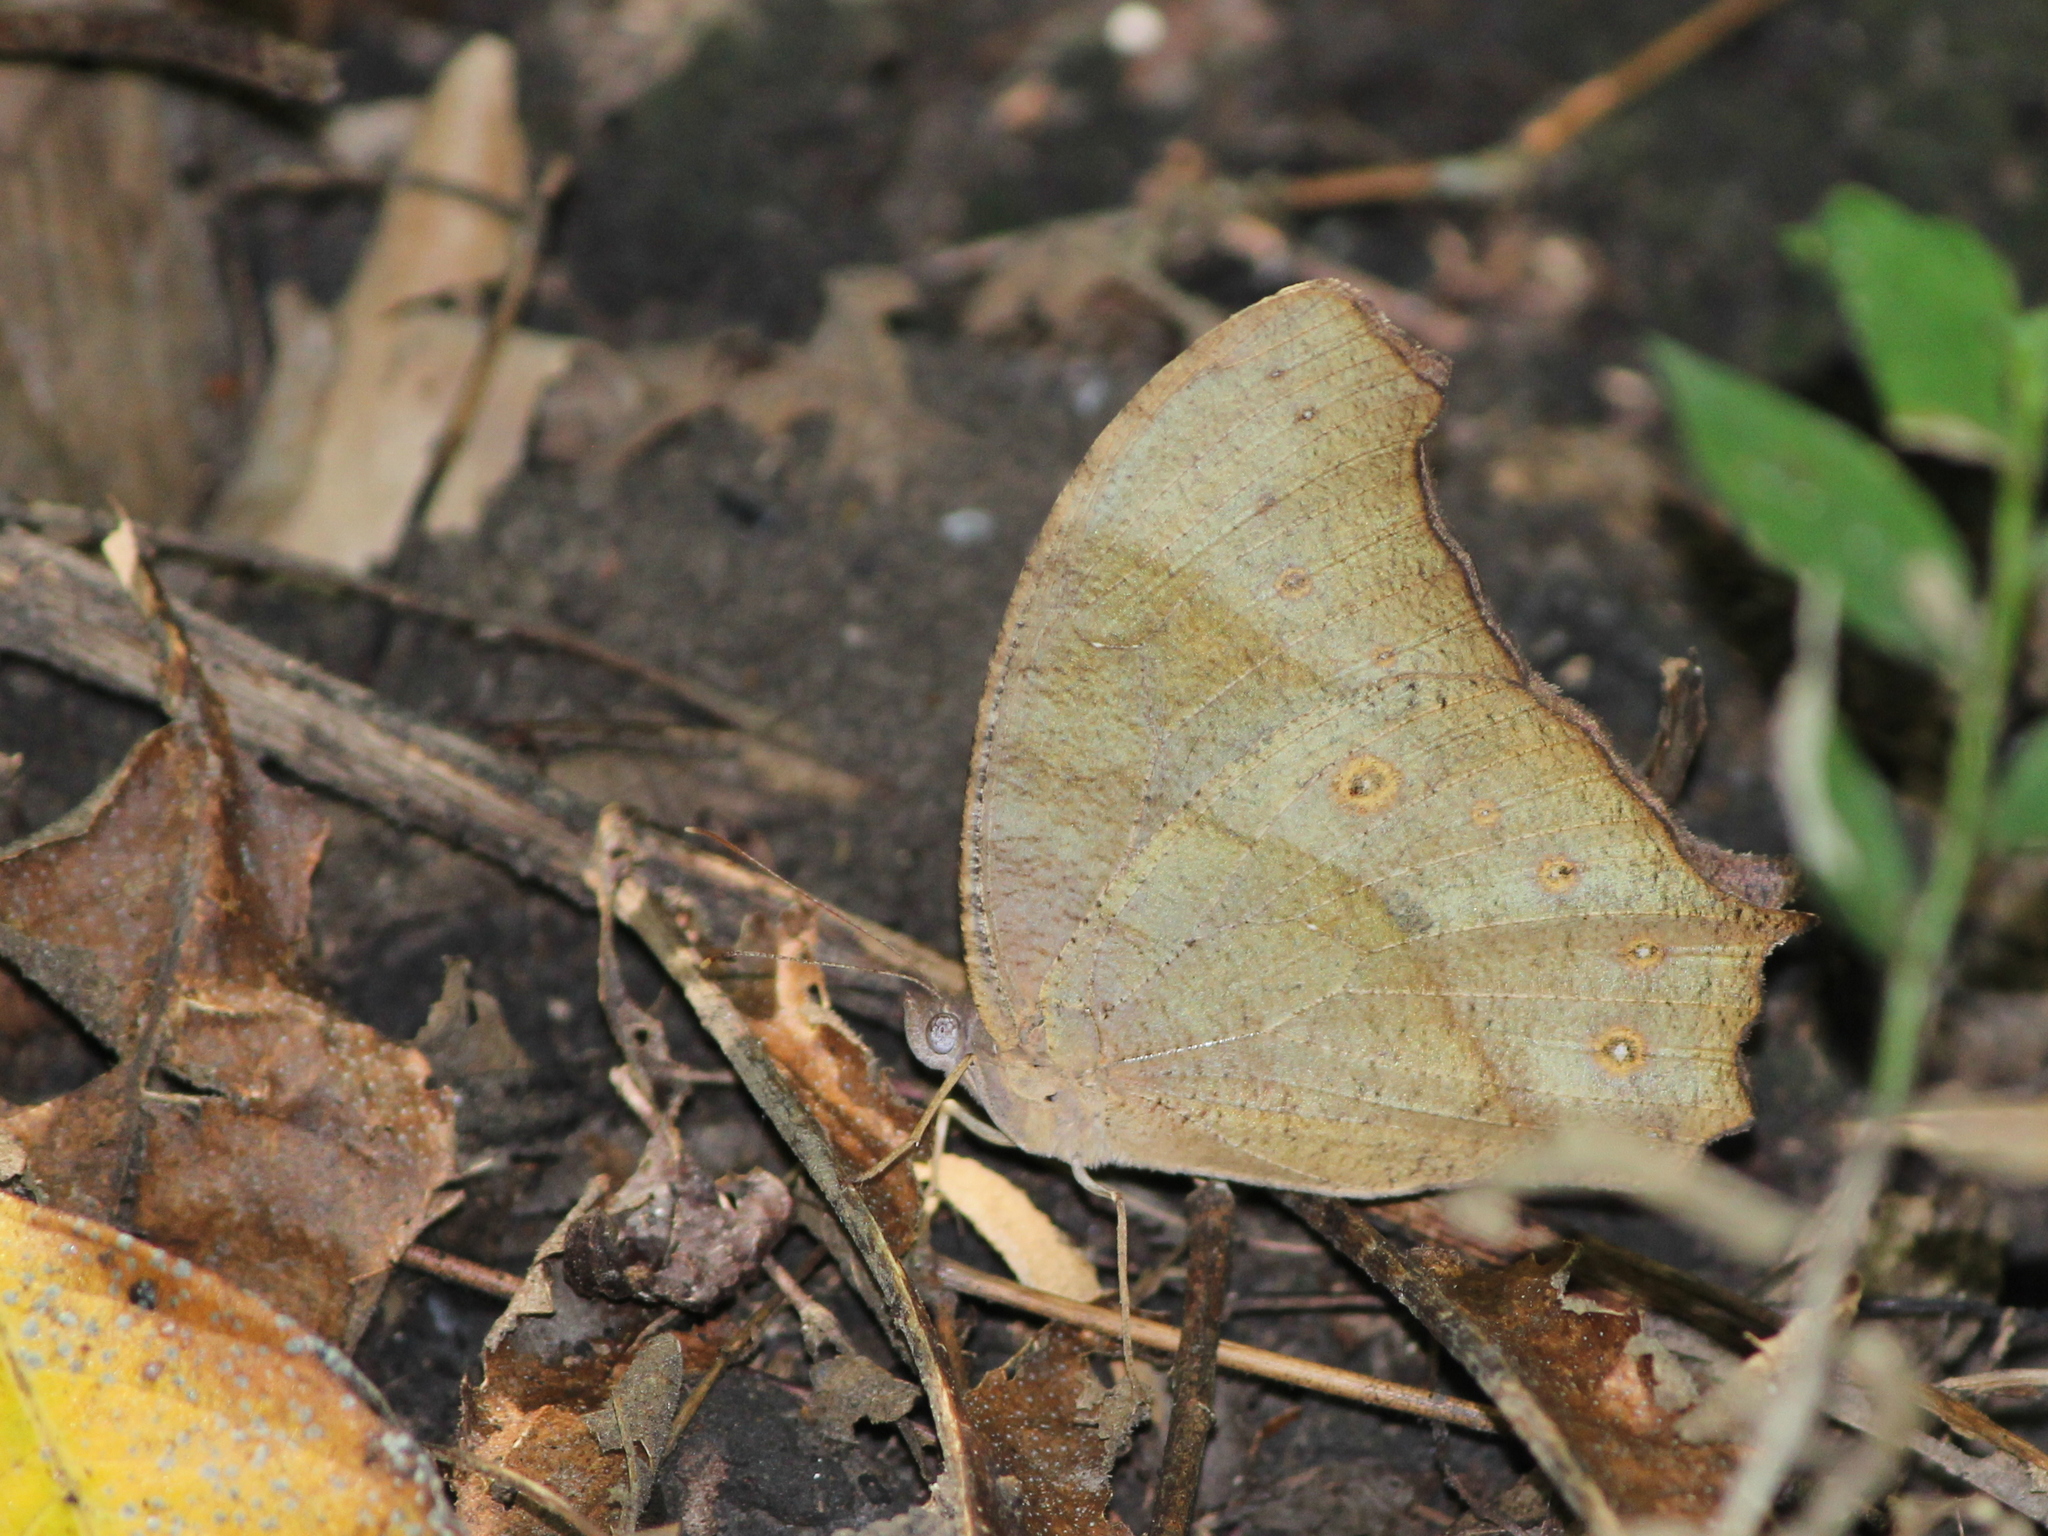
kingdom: Animalia
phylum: Arthropoda
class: Insecta
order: Lepidoptera
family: Nymphalidae
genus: Melanitis
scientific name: Melanitis leda
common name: Twilight brown
